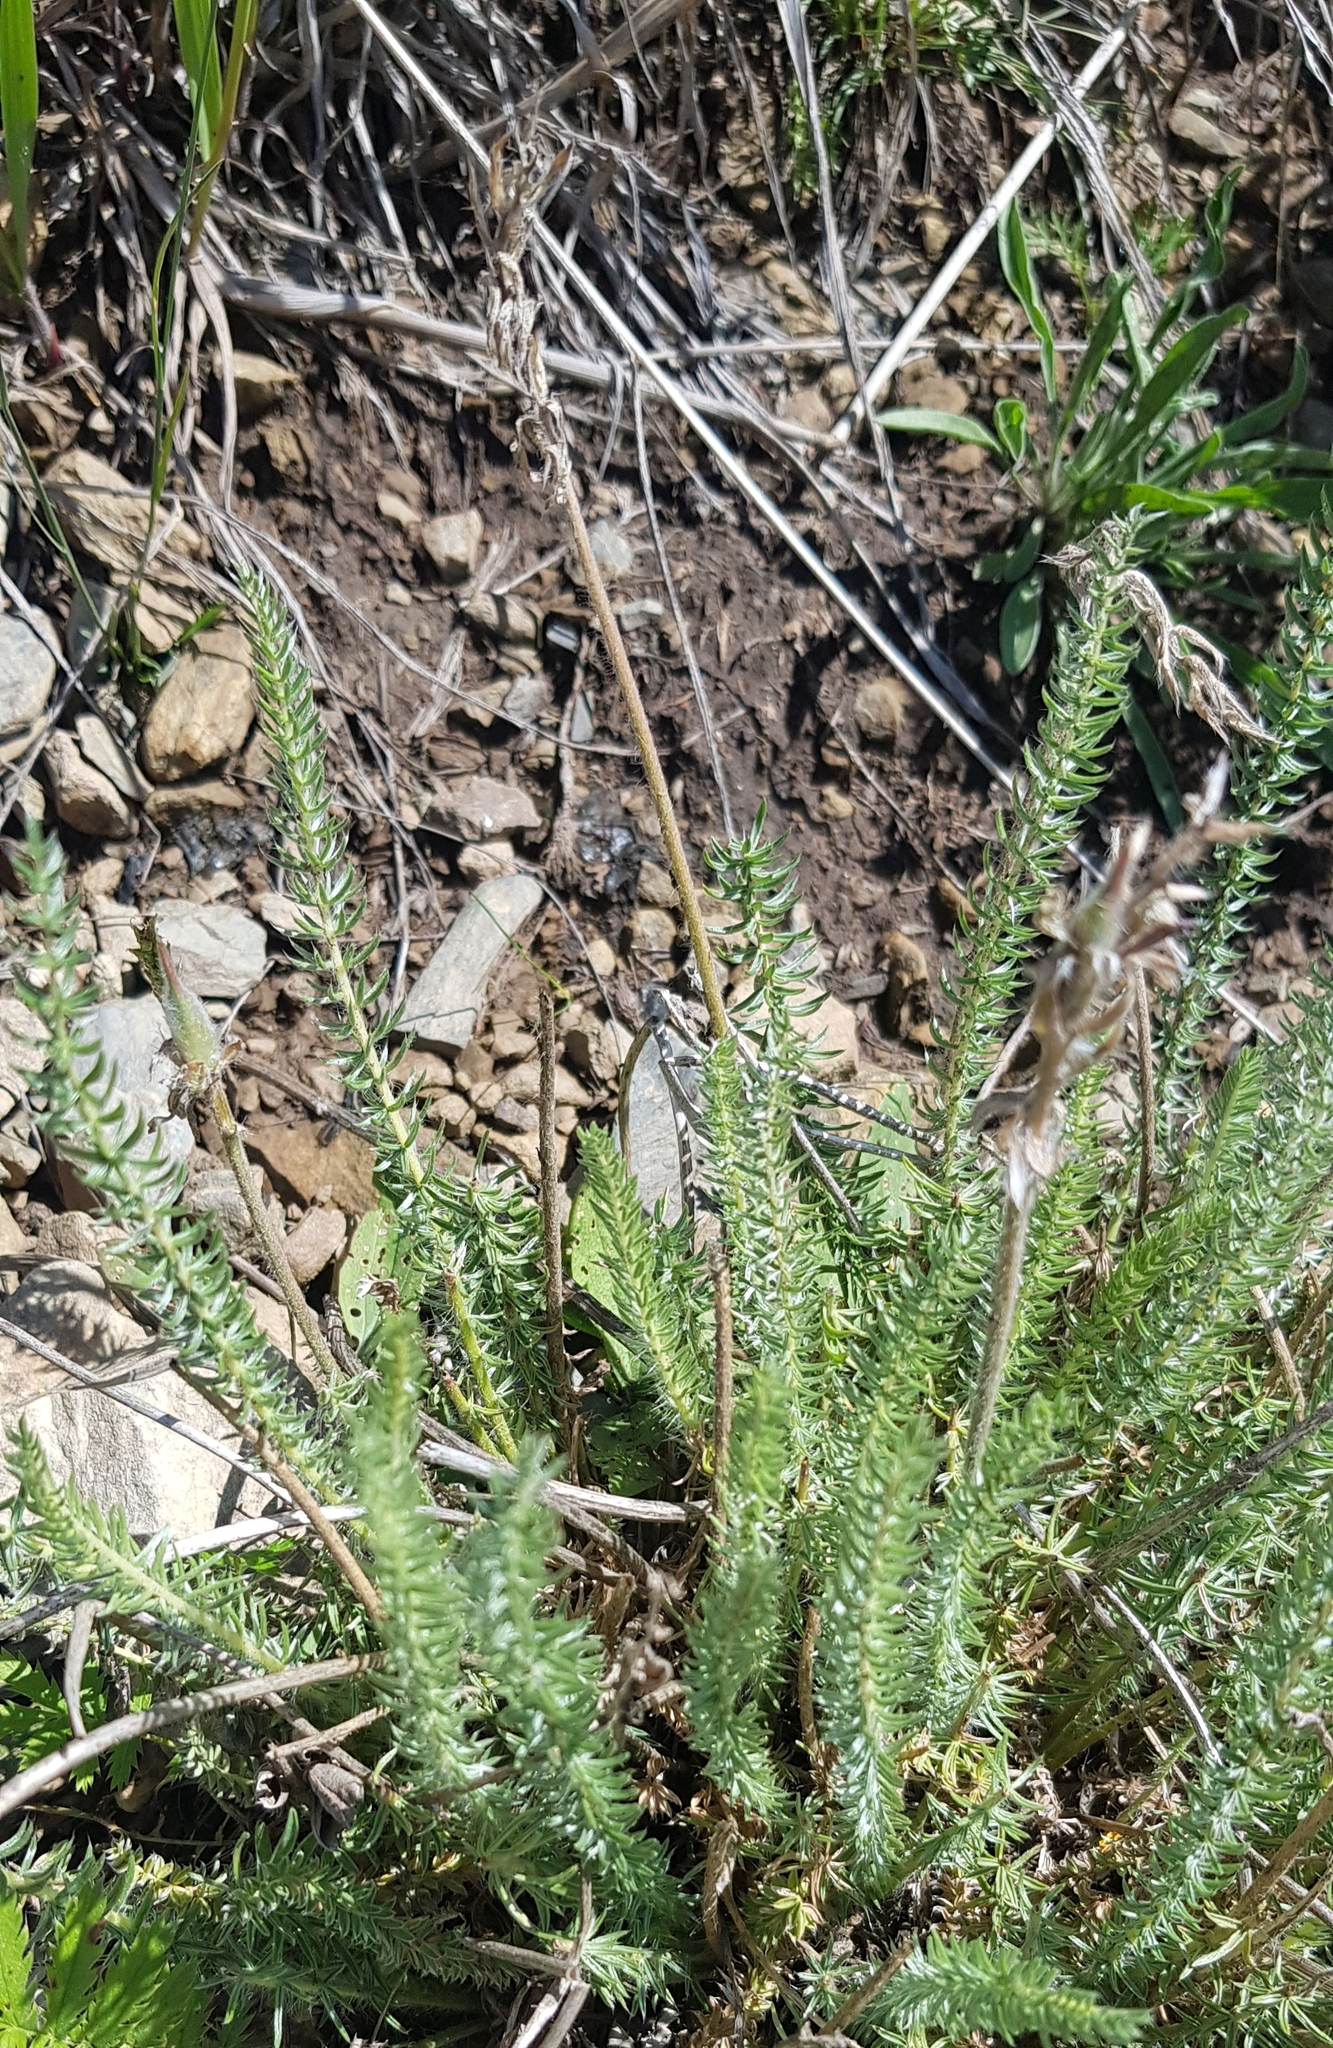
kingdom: Plantae
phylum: Tracheophyta
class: Magnoliopsida
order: Fabales
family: Fabaceae
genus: Oxytropis
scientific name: Oxytropis myriophylla
